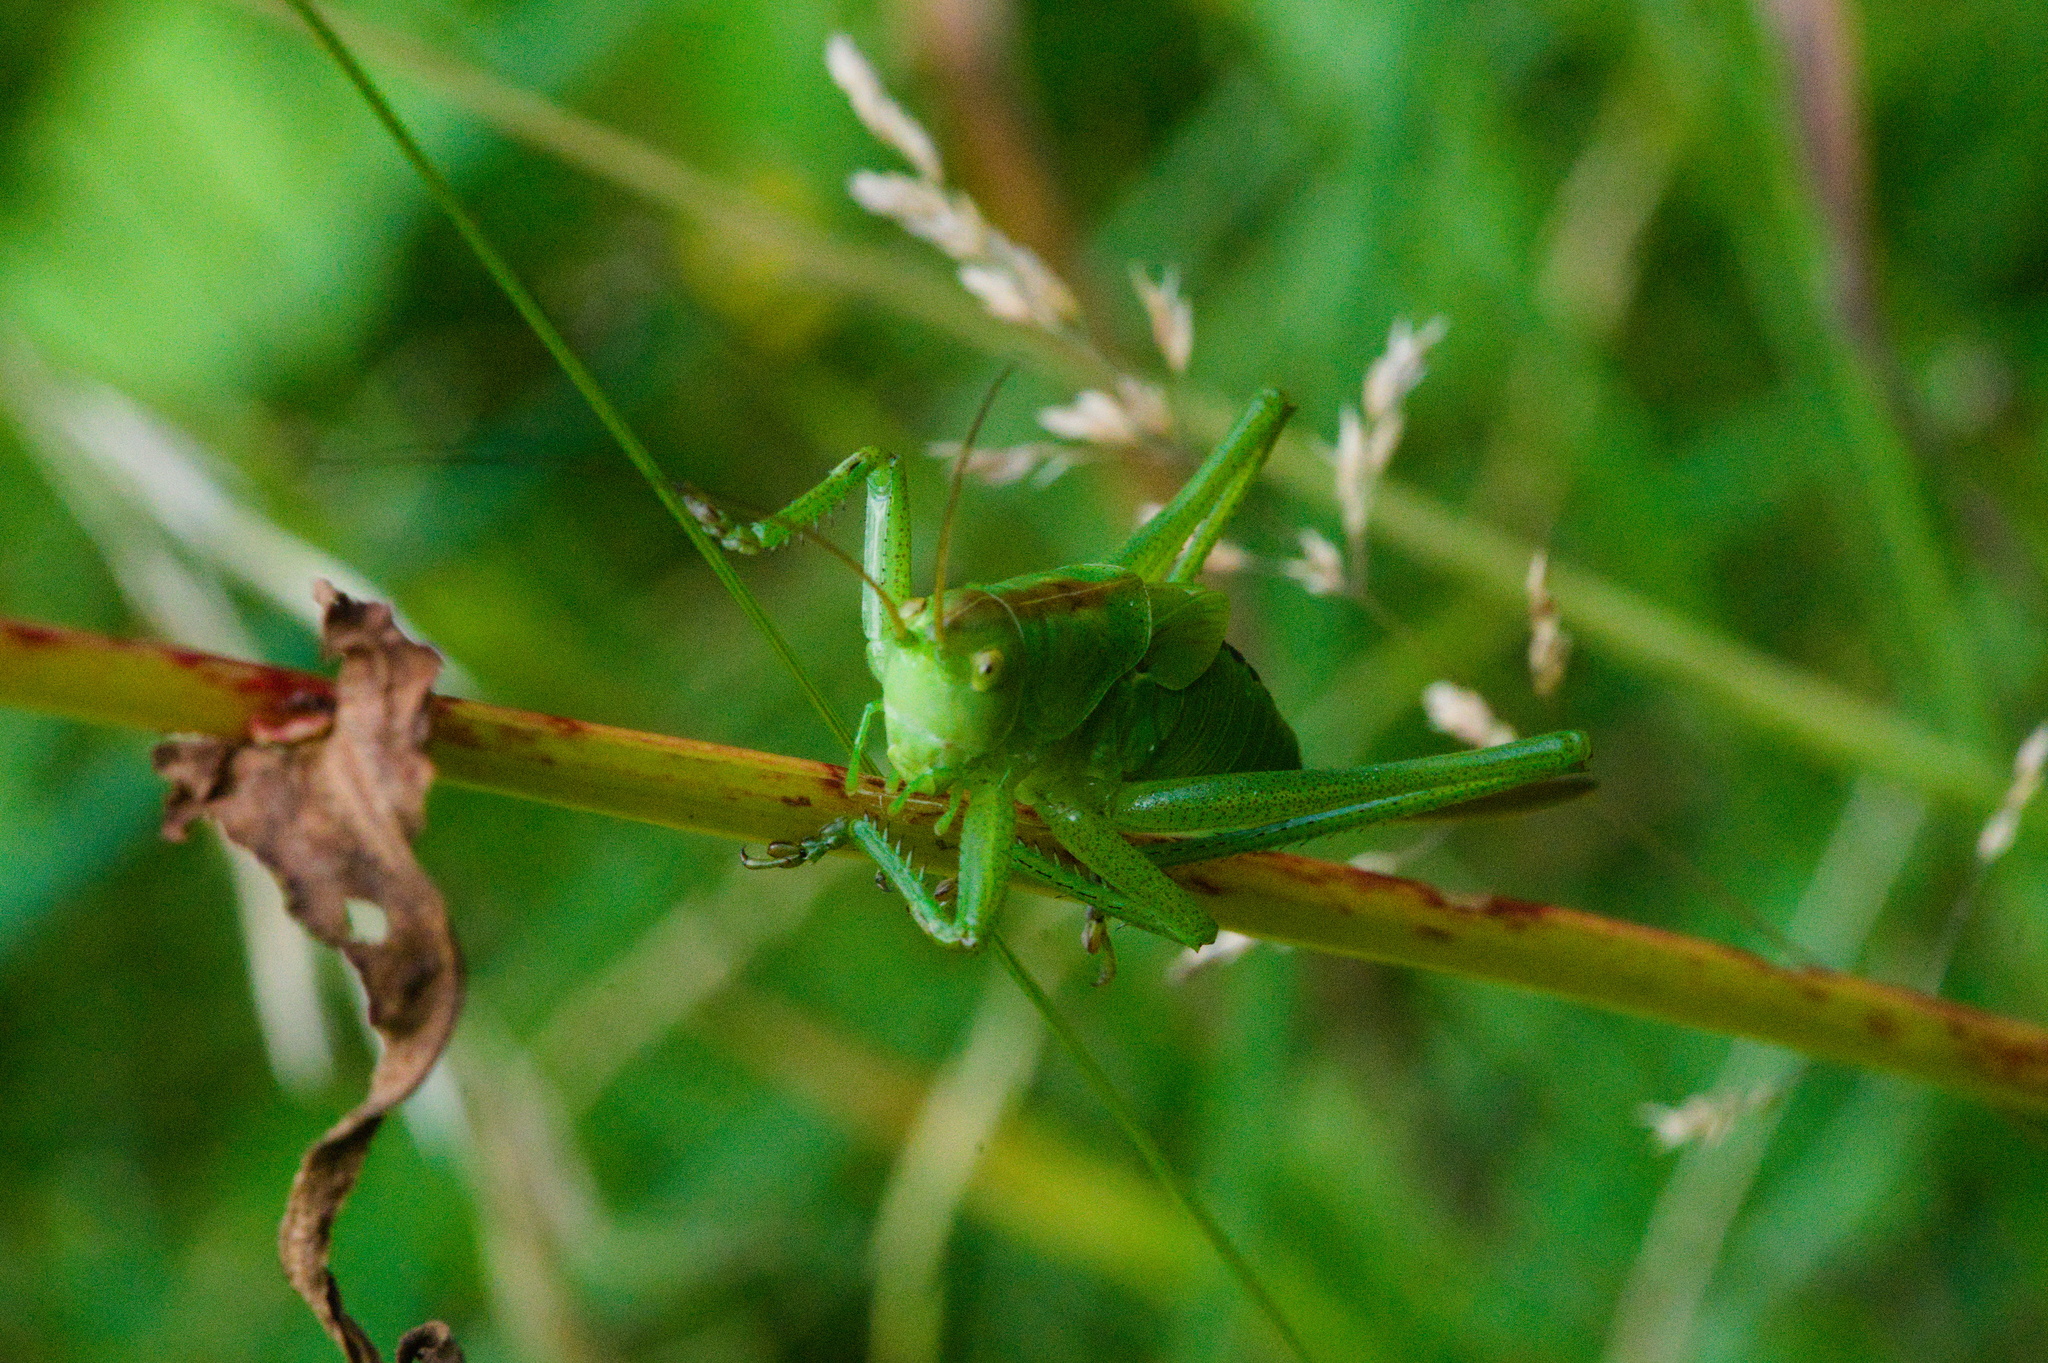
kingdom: Animalia
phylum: Arthropoda
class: Insecta
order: Orthoptera
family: Tettigoniidae
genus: Tettigonia
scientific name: Tettigonia cantans
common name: Upland green bush-cricket
